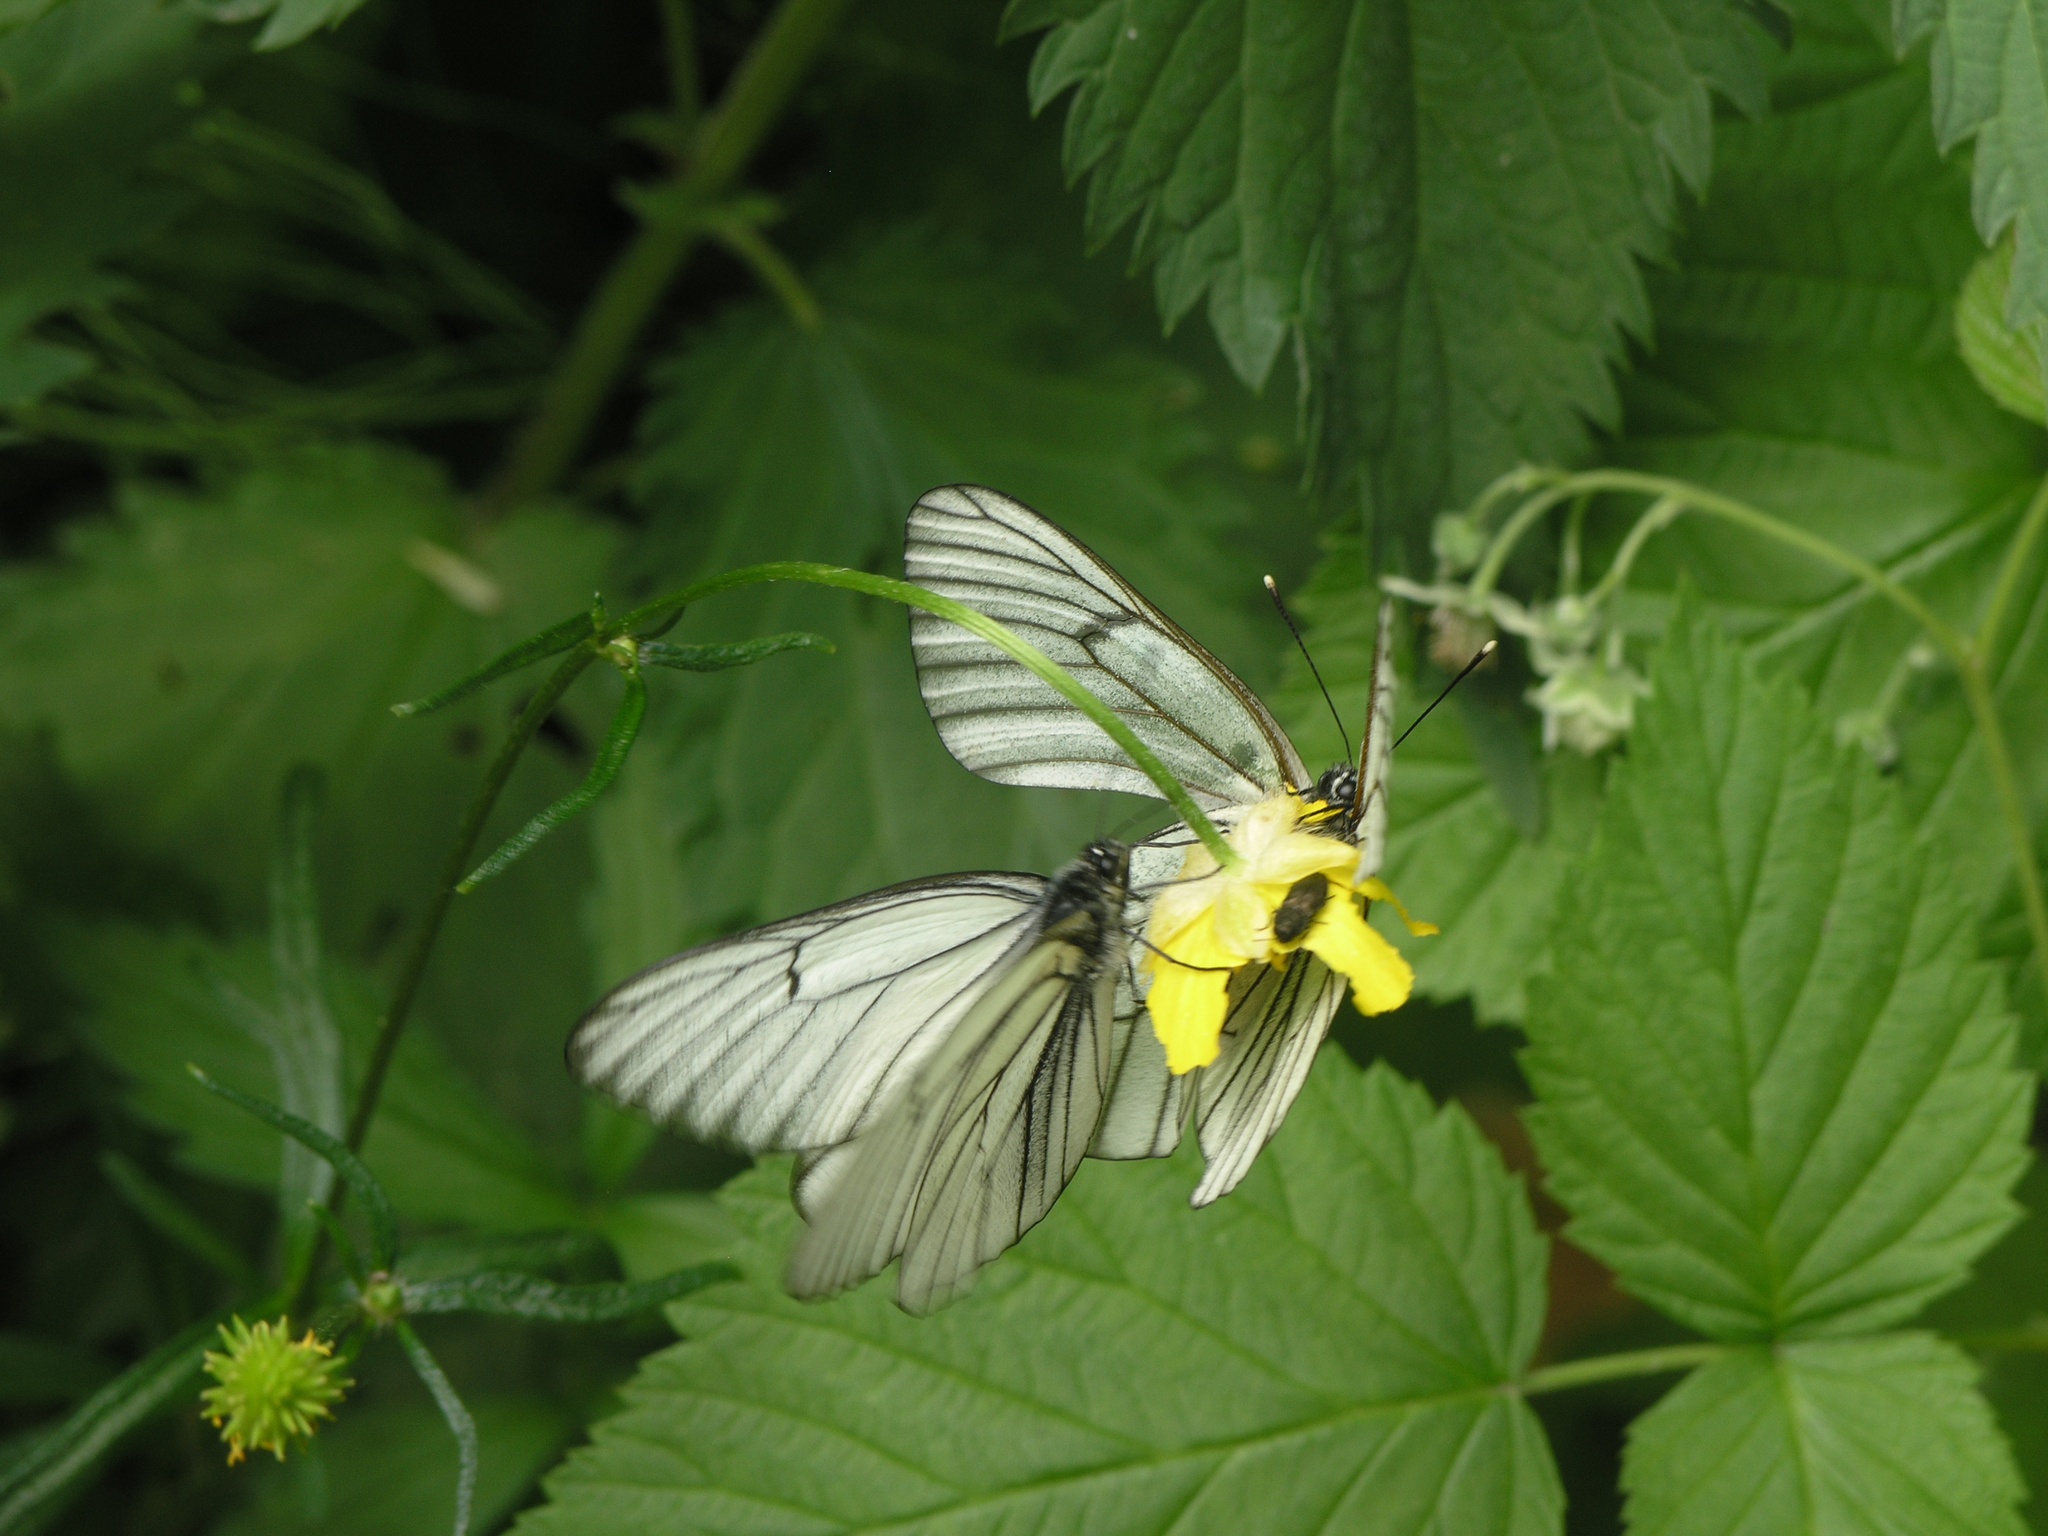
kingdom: Animalia
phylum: Arthropoda
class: Insecta
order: Lepidoptera
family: Pieridae
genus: Aporia
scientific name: Aporia crataegi
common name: Black-veined white
